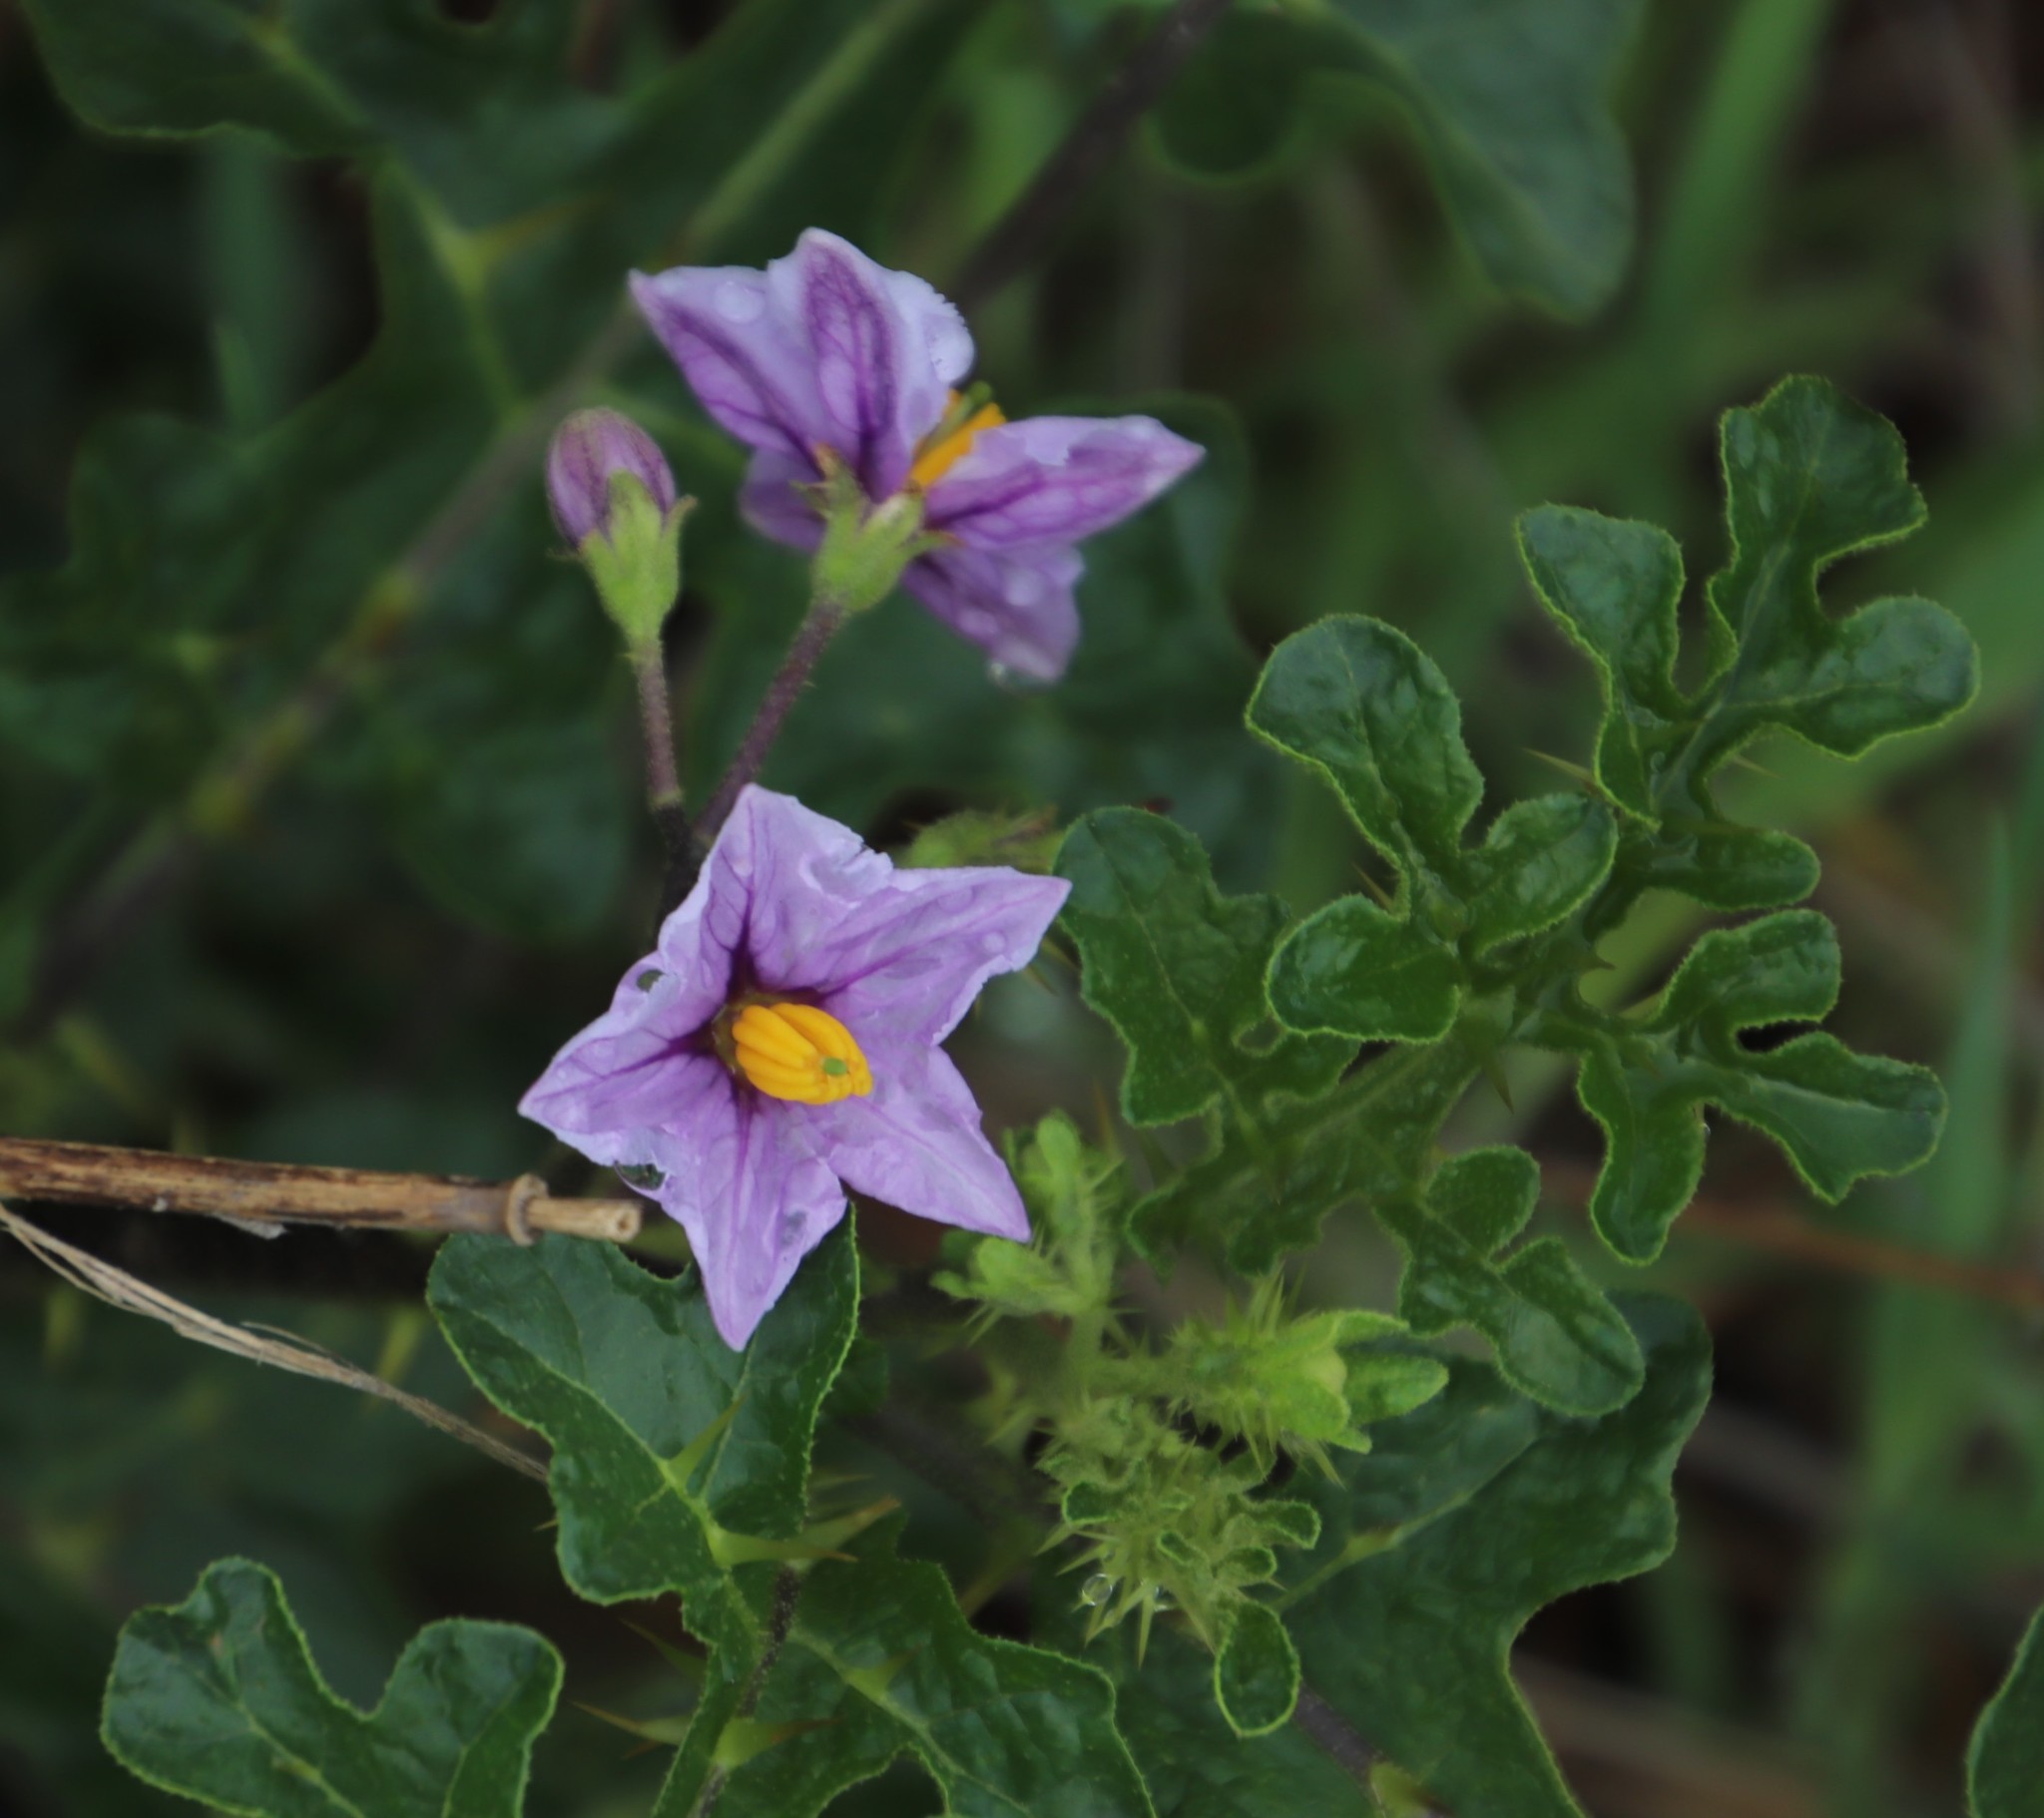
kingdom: Plantae
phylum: Tracheophyta
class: Magnoliopsida
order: Solanales
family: Solanaceae
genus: Solanum
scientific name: Solanum linnaeanum
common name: Nightshade
